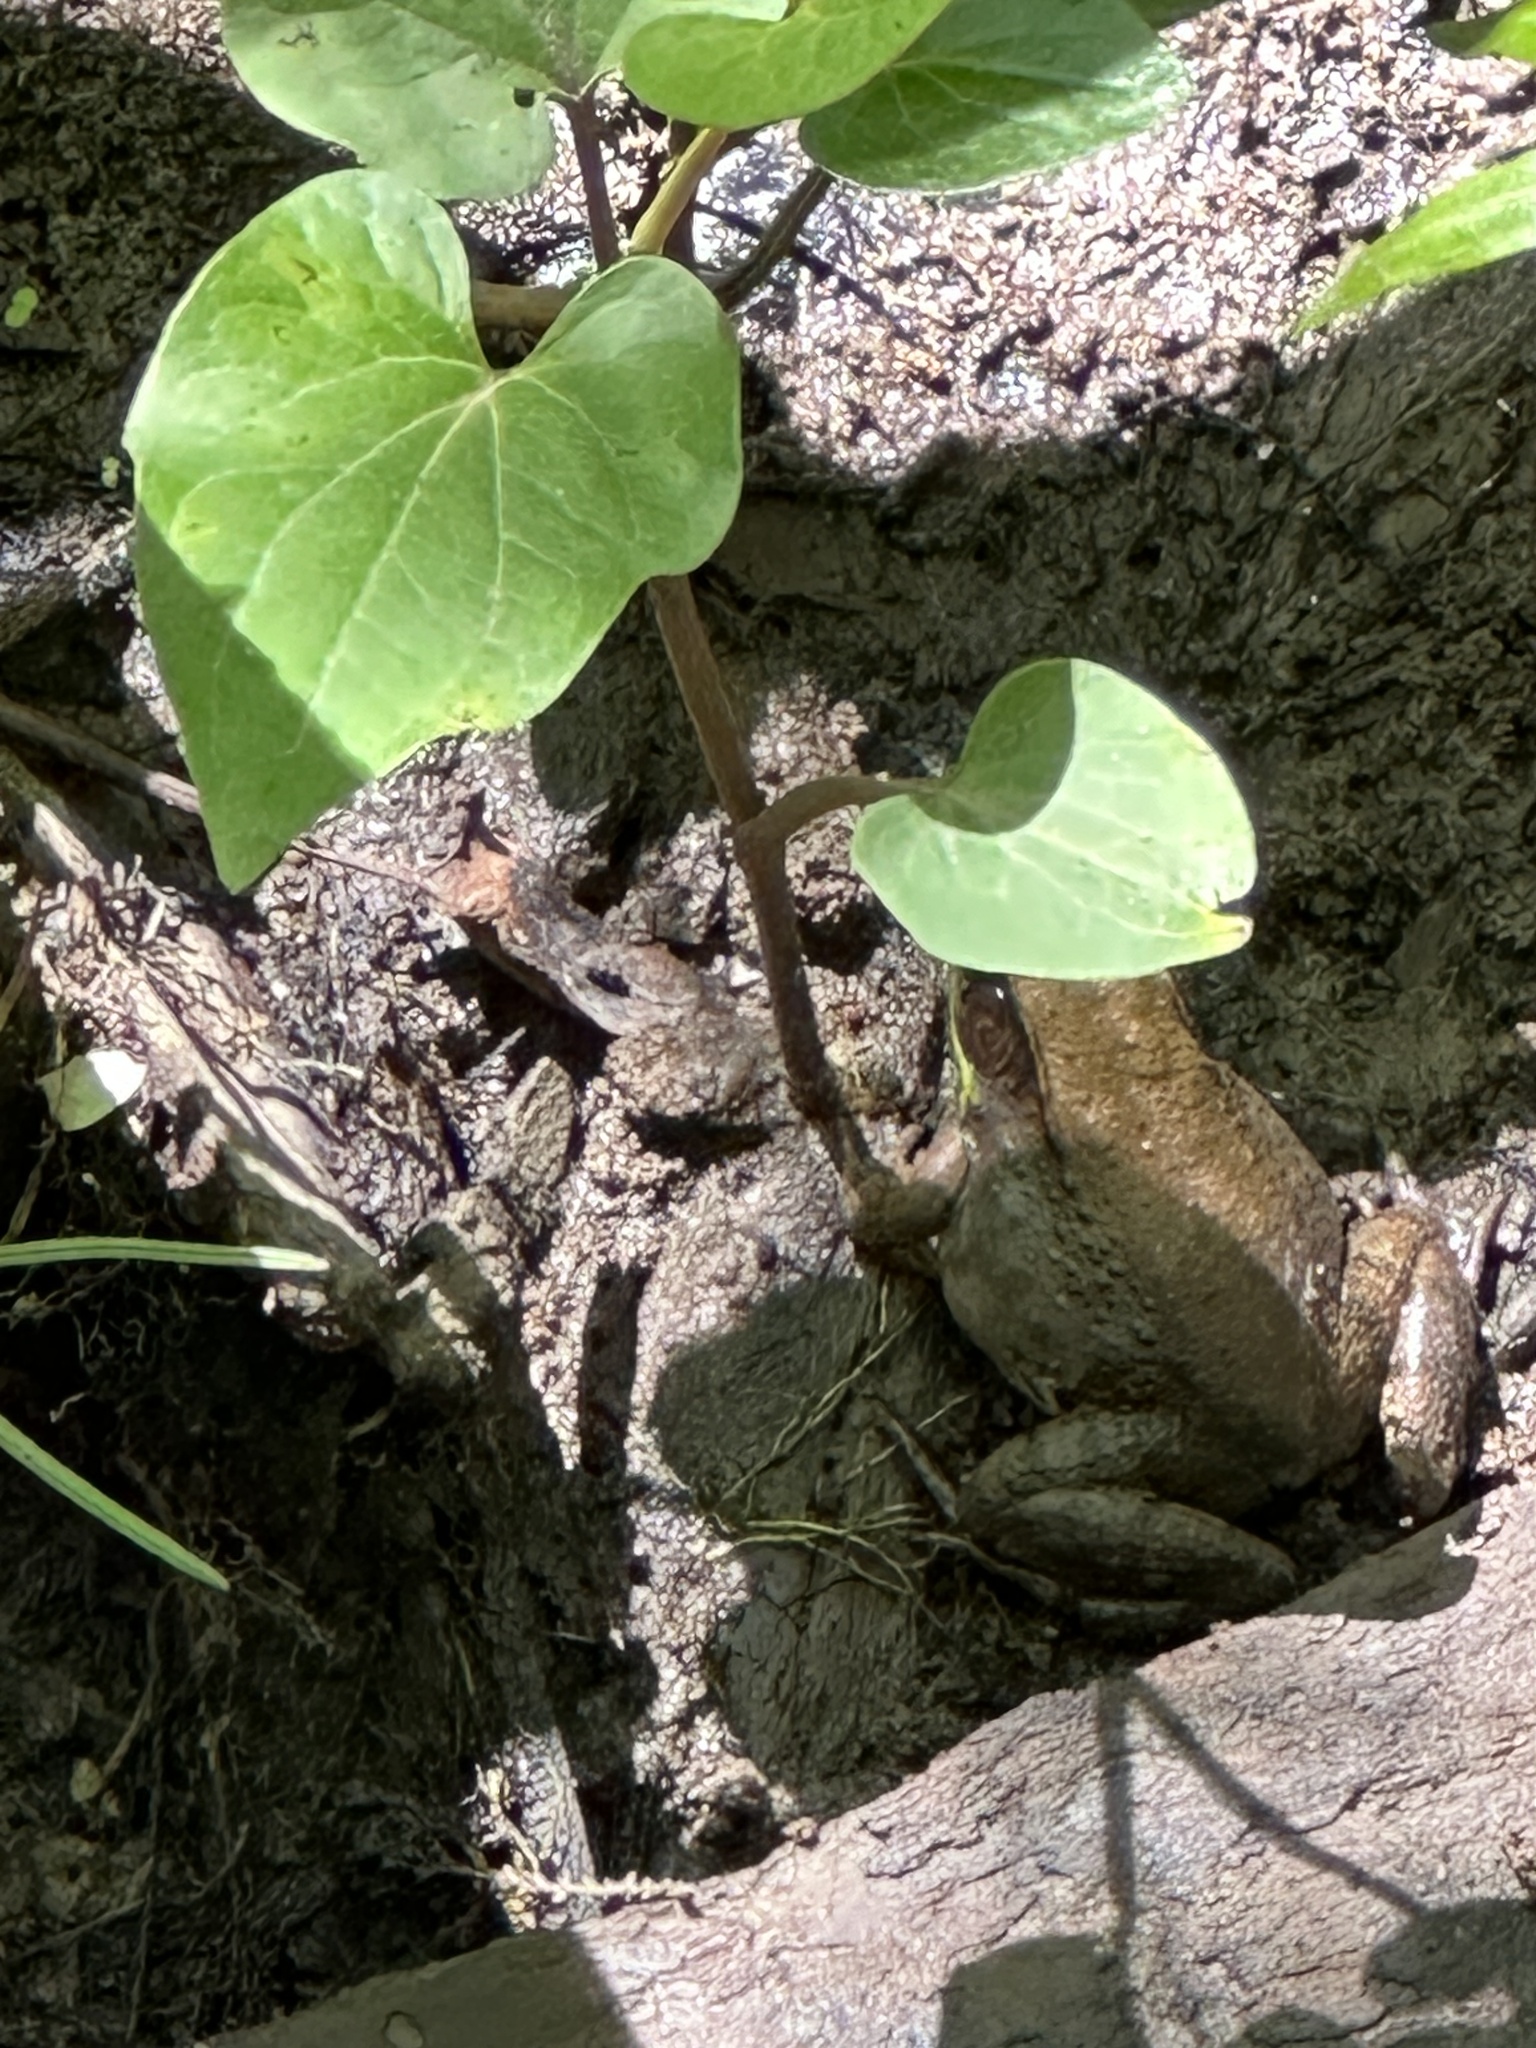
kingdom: Animalia
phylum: Chordata
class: Amphibia
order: Anura
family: Ranidae
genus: Lithobates
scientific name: Lithobates clamitans
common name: Green frog
